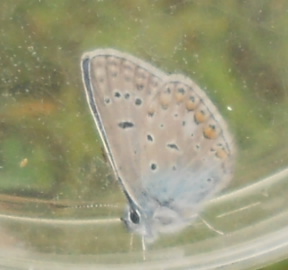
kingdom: Animalia
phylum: Arthropoda
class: Insecta
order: Lepidoptera
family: Lycaenidae
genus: Polyommatus
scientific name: Polyommatus icarus
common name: Common blue
